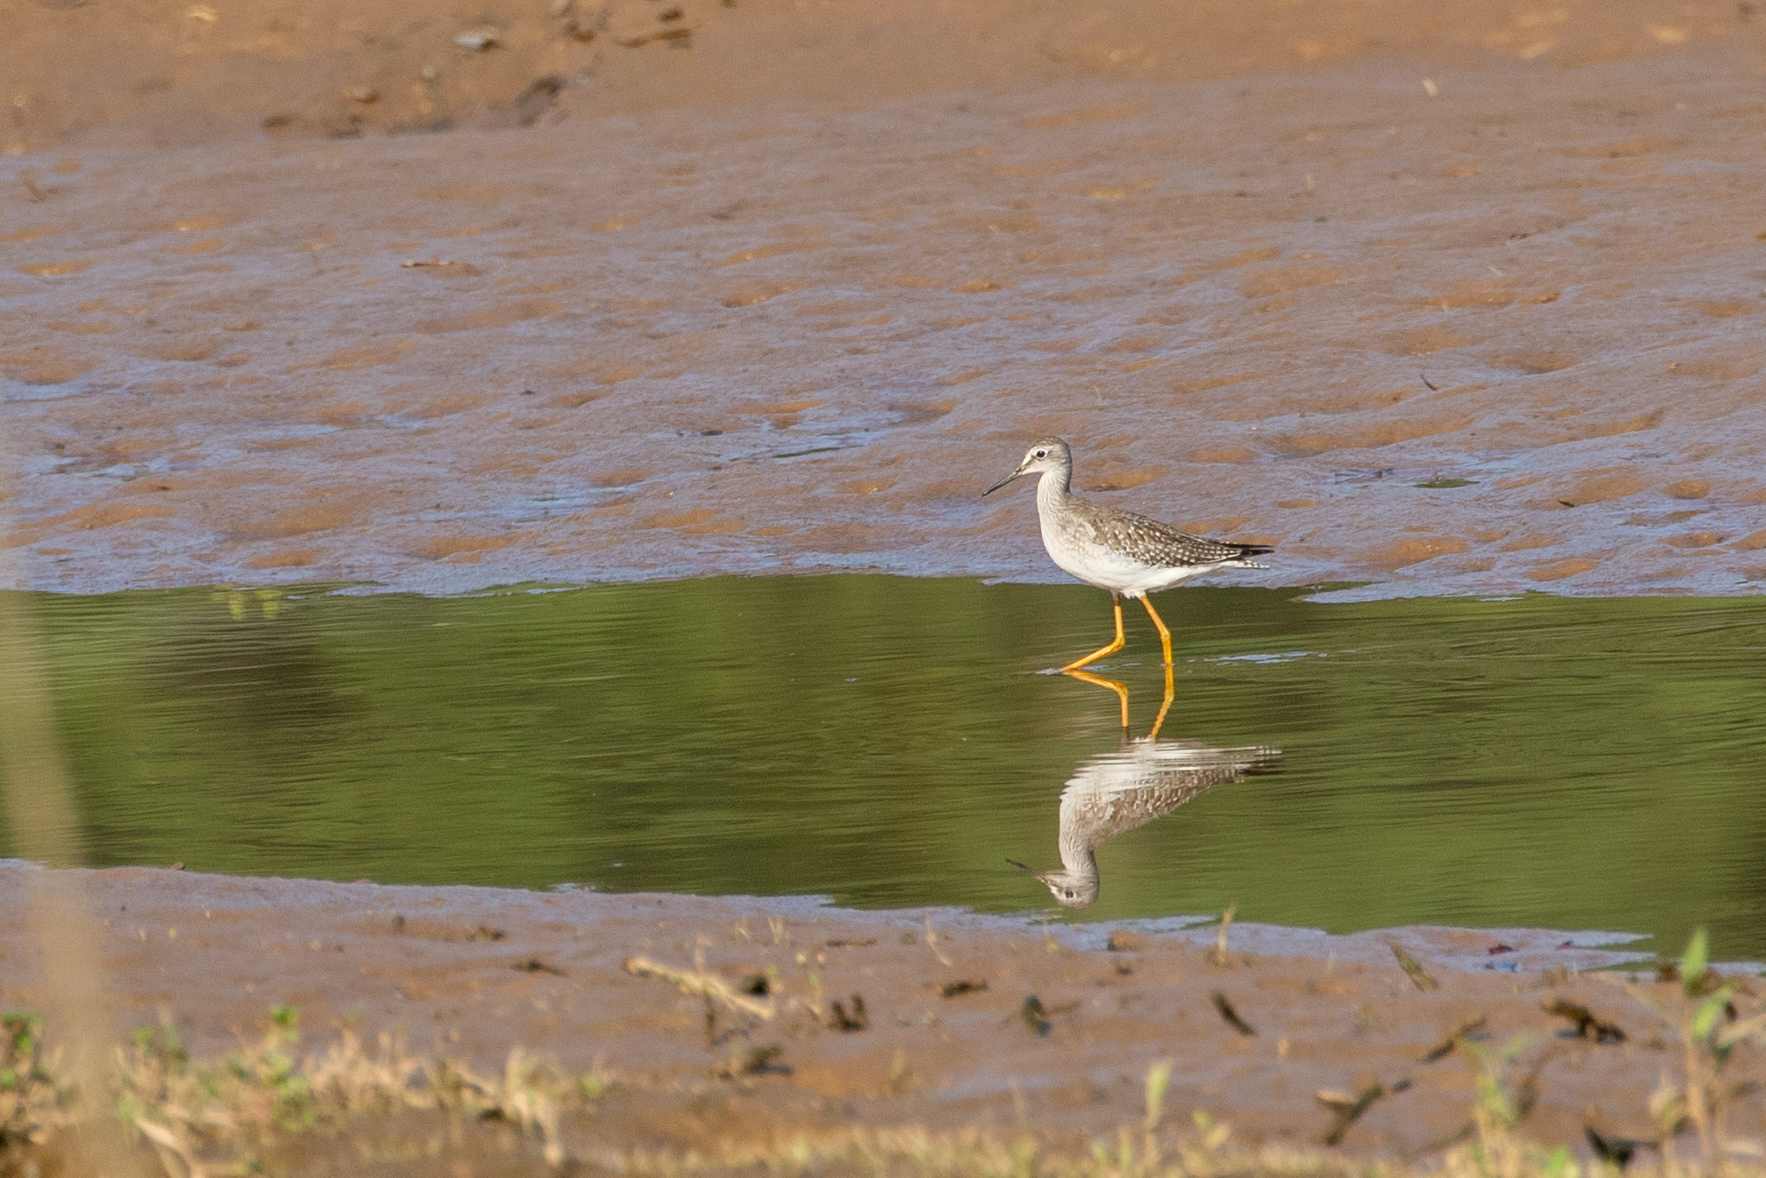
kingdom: Animalia
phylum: Chordata
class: Aves
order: Charadriiformes
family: Scolopacidae
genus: Tringa
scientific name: Tringa flavipes
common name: Lesser yellowlegs
